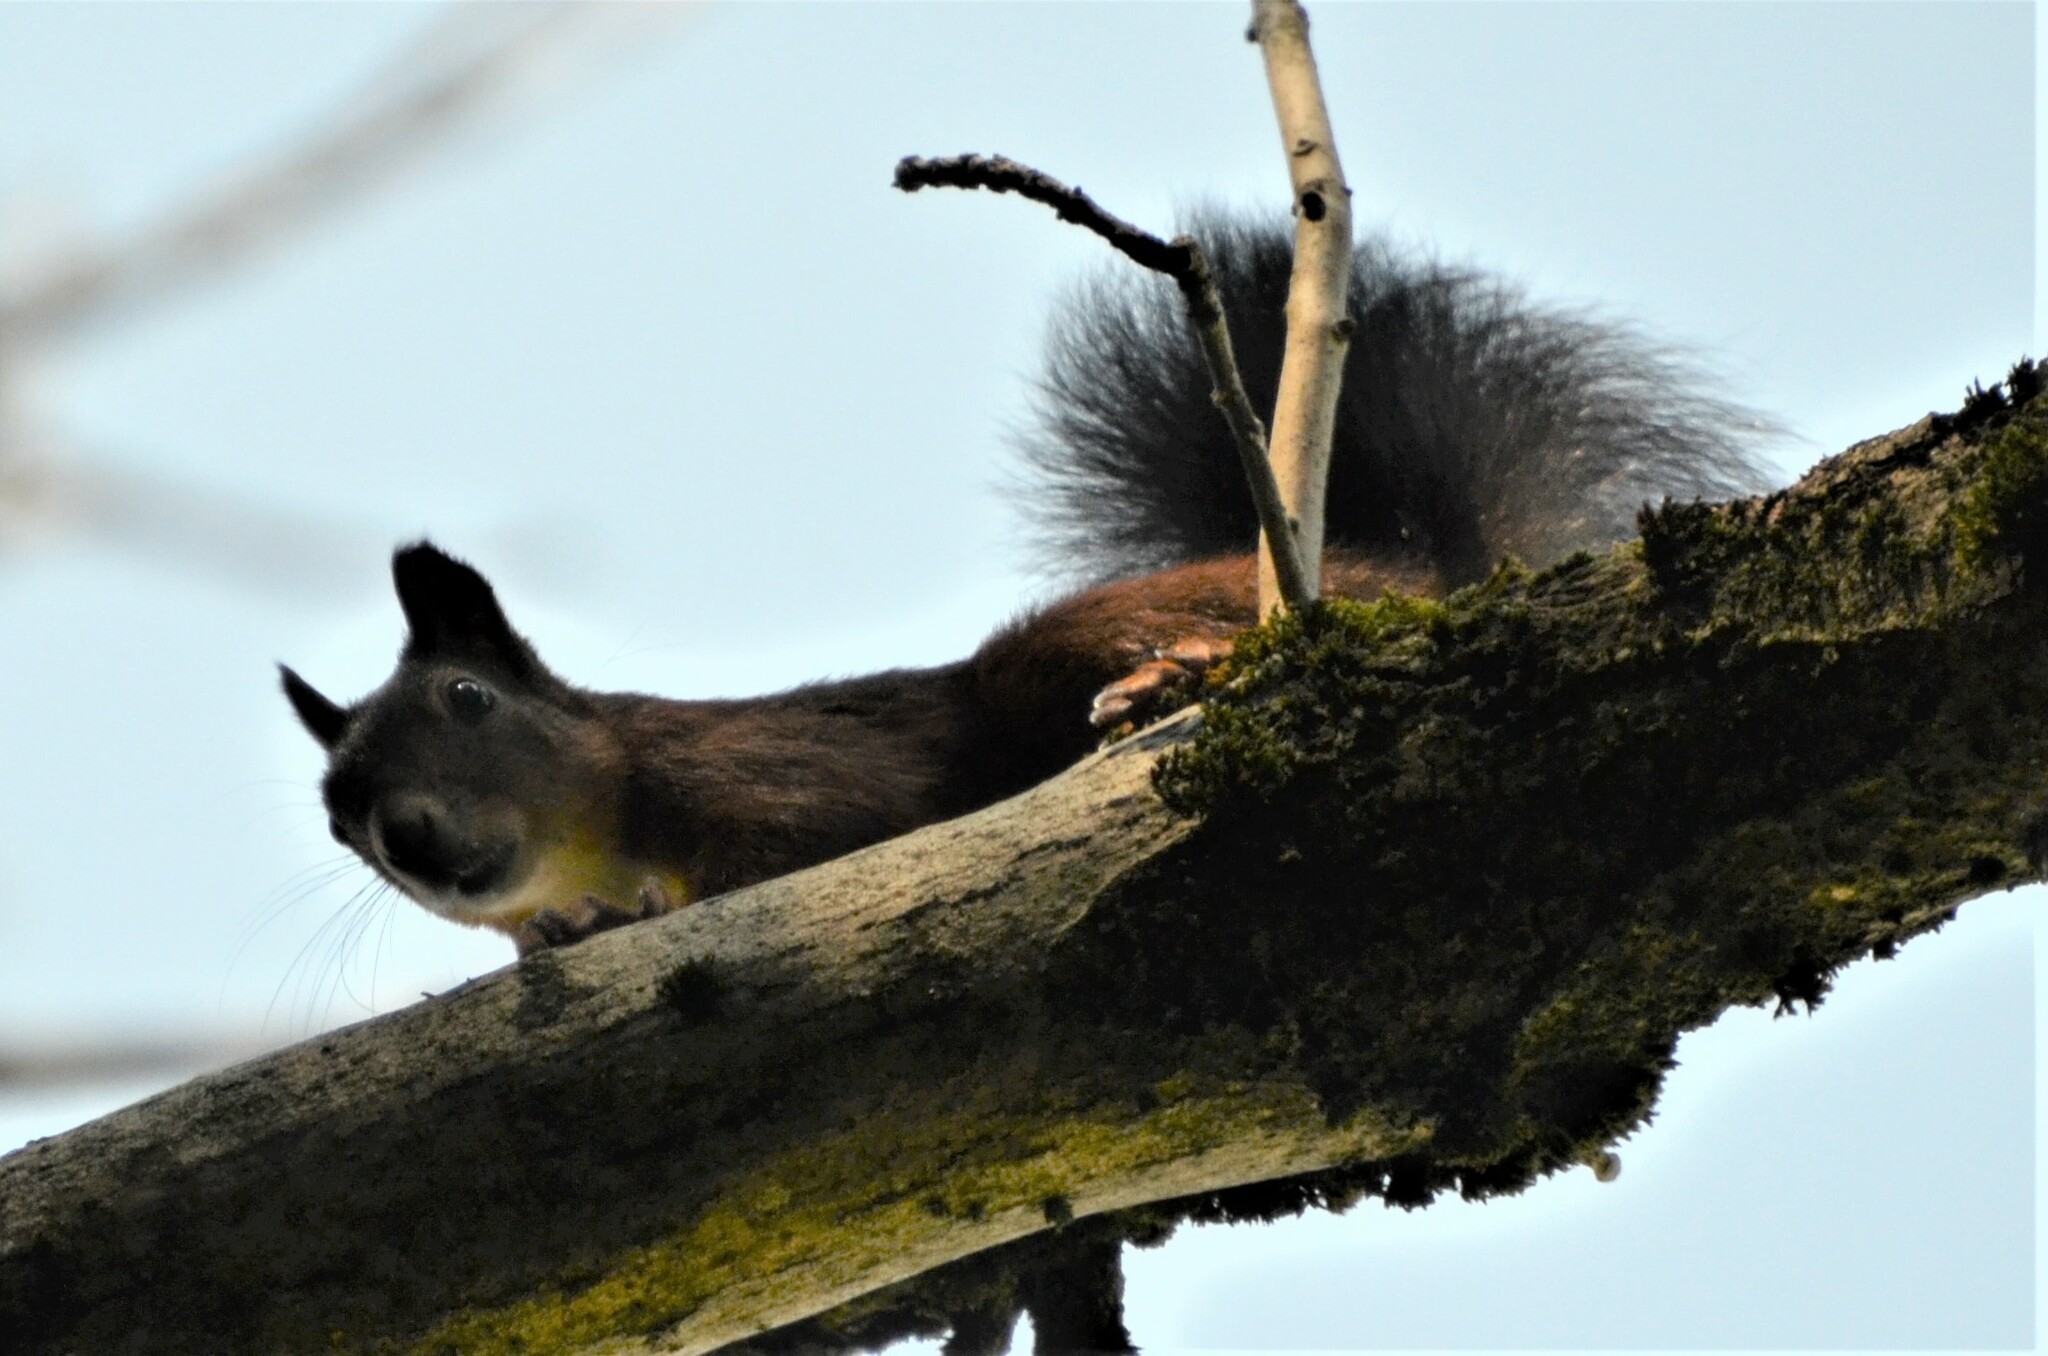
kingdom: Animalia
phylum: Chordata
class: Mammalia
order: Rodentia
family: Sciuridae
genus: Sciurus
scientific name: Sciurus vulgaris
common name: Eurasian red squirrel
